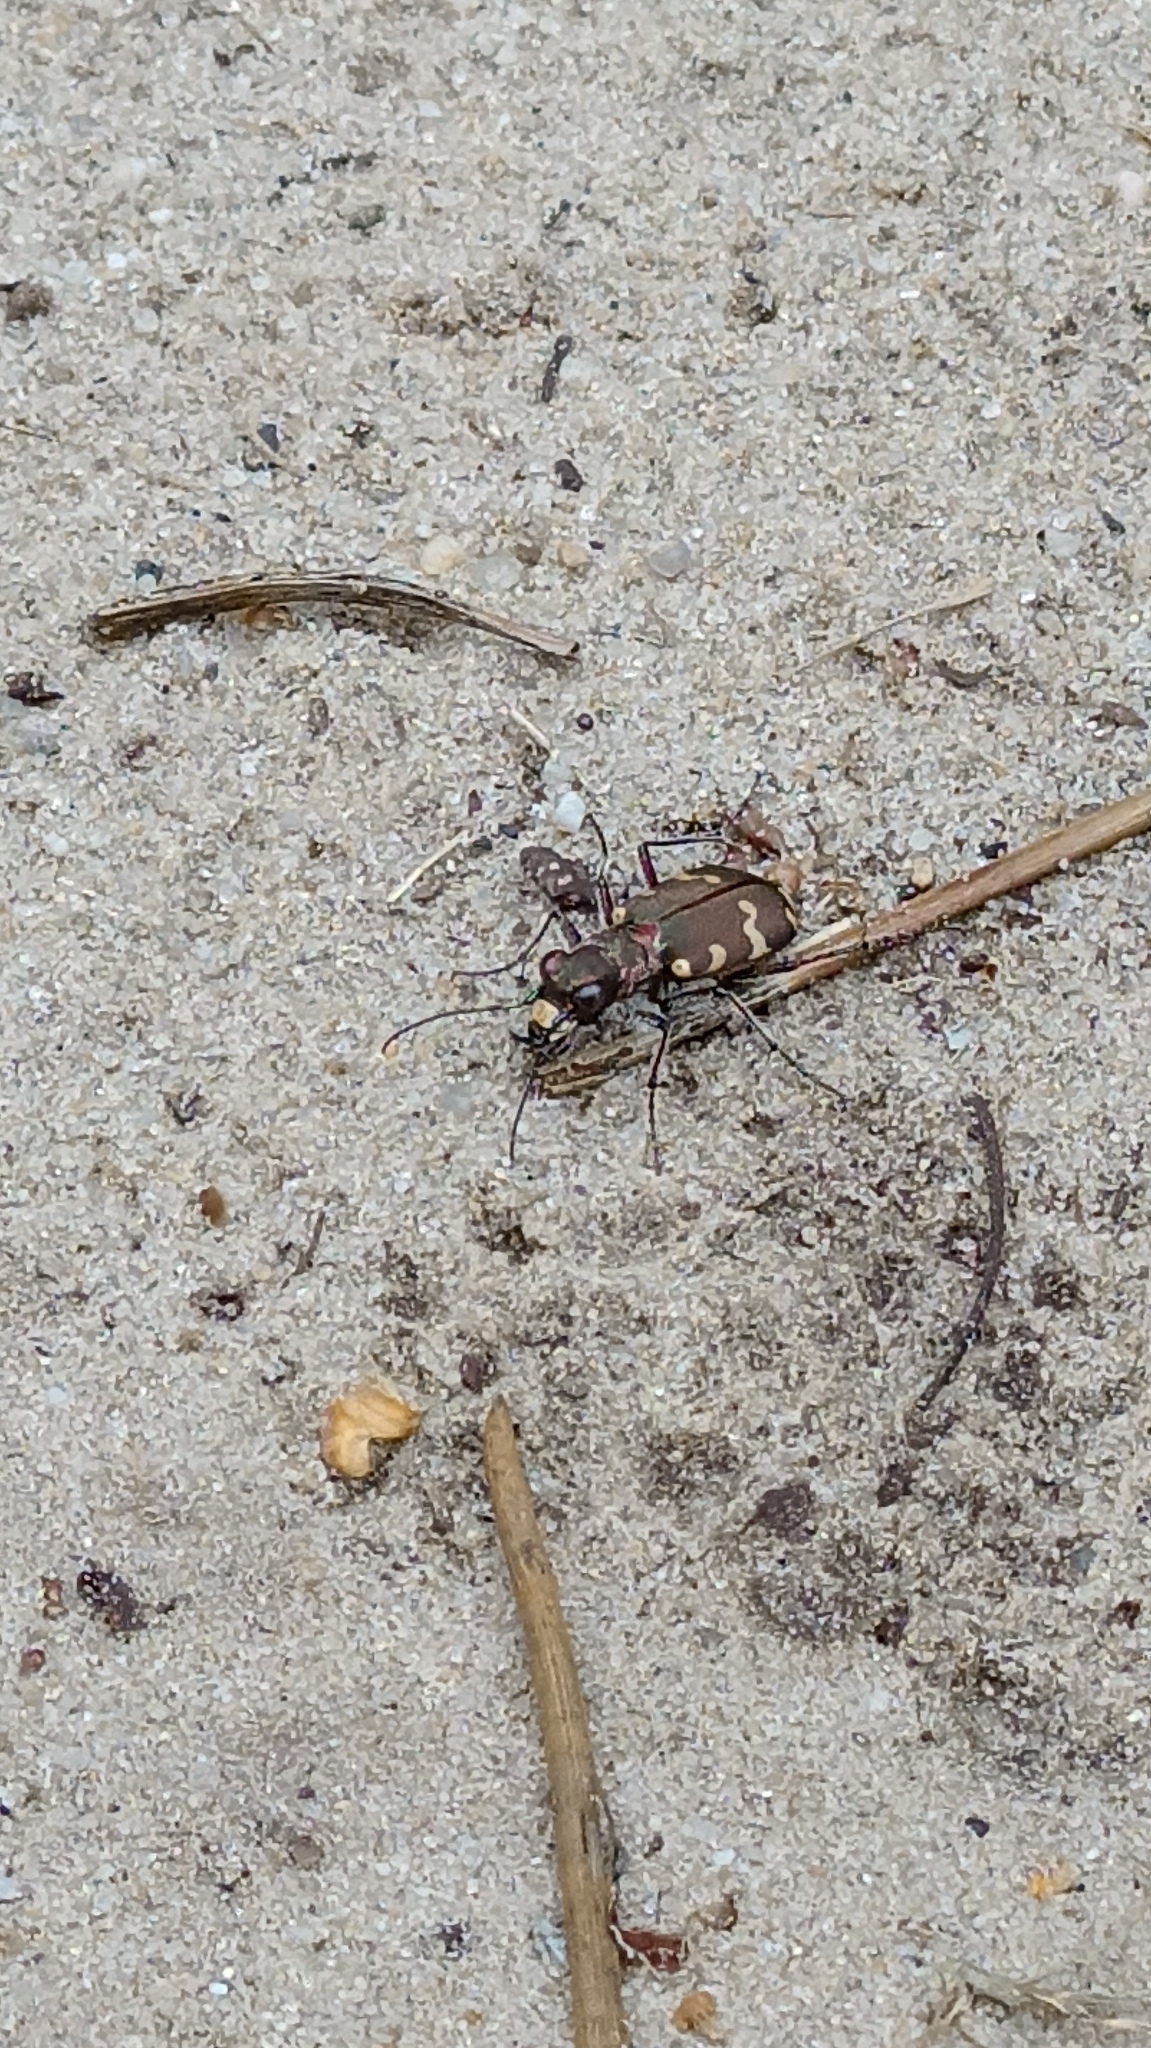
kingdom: Animalia
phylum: Arthropoda
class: Insecta
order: Coleoptera
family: Carabidae
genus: Cicindela
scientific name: Cicindela hybrida
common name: Northern dune tiger beetle
